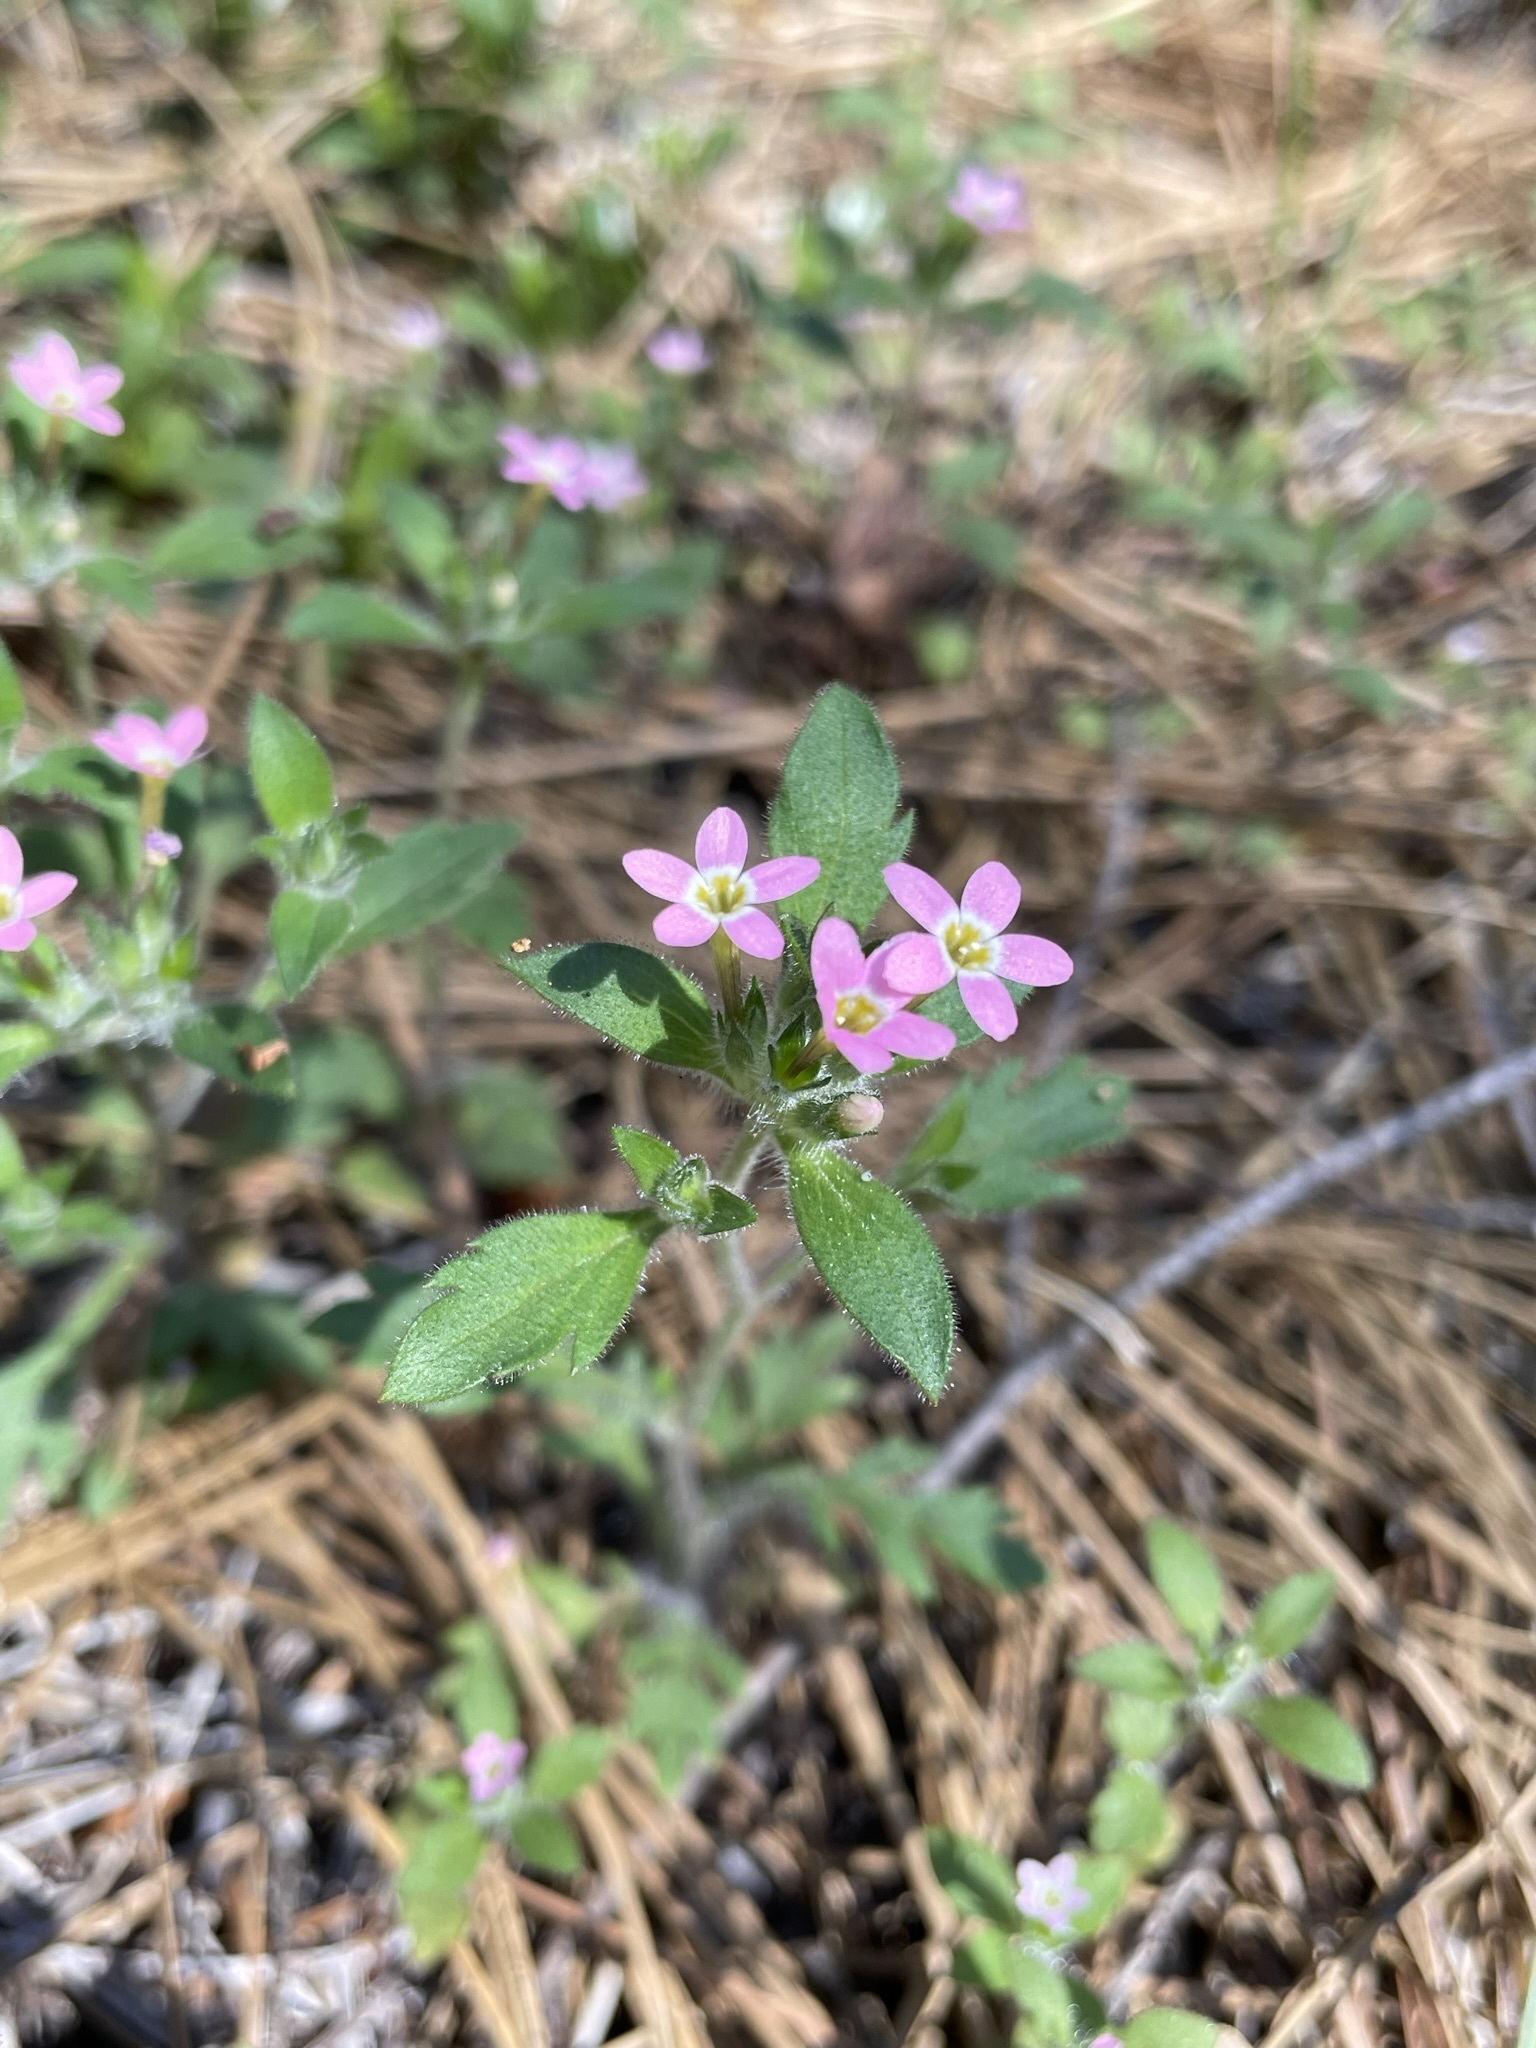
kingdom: Plantae
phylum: Tracheophyta
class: Magnoliopsida
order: Ericales
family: Polemoniaceae
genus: Collomia
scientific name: Collomia heterophylla
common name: Variable-leaved collomia
